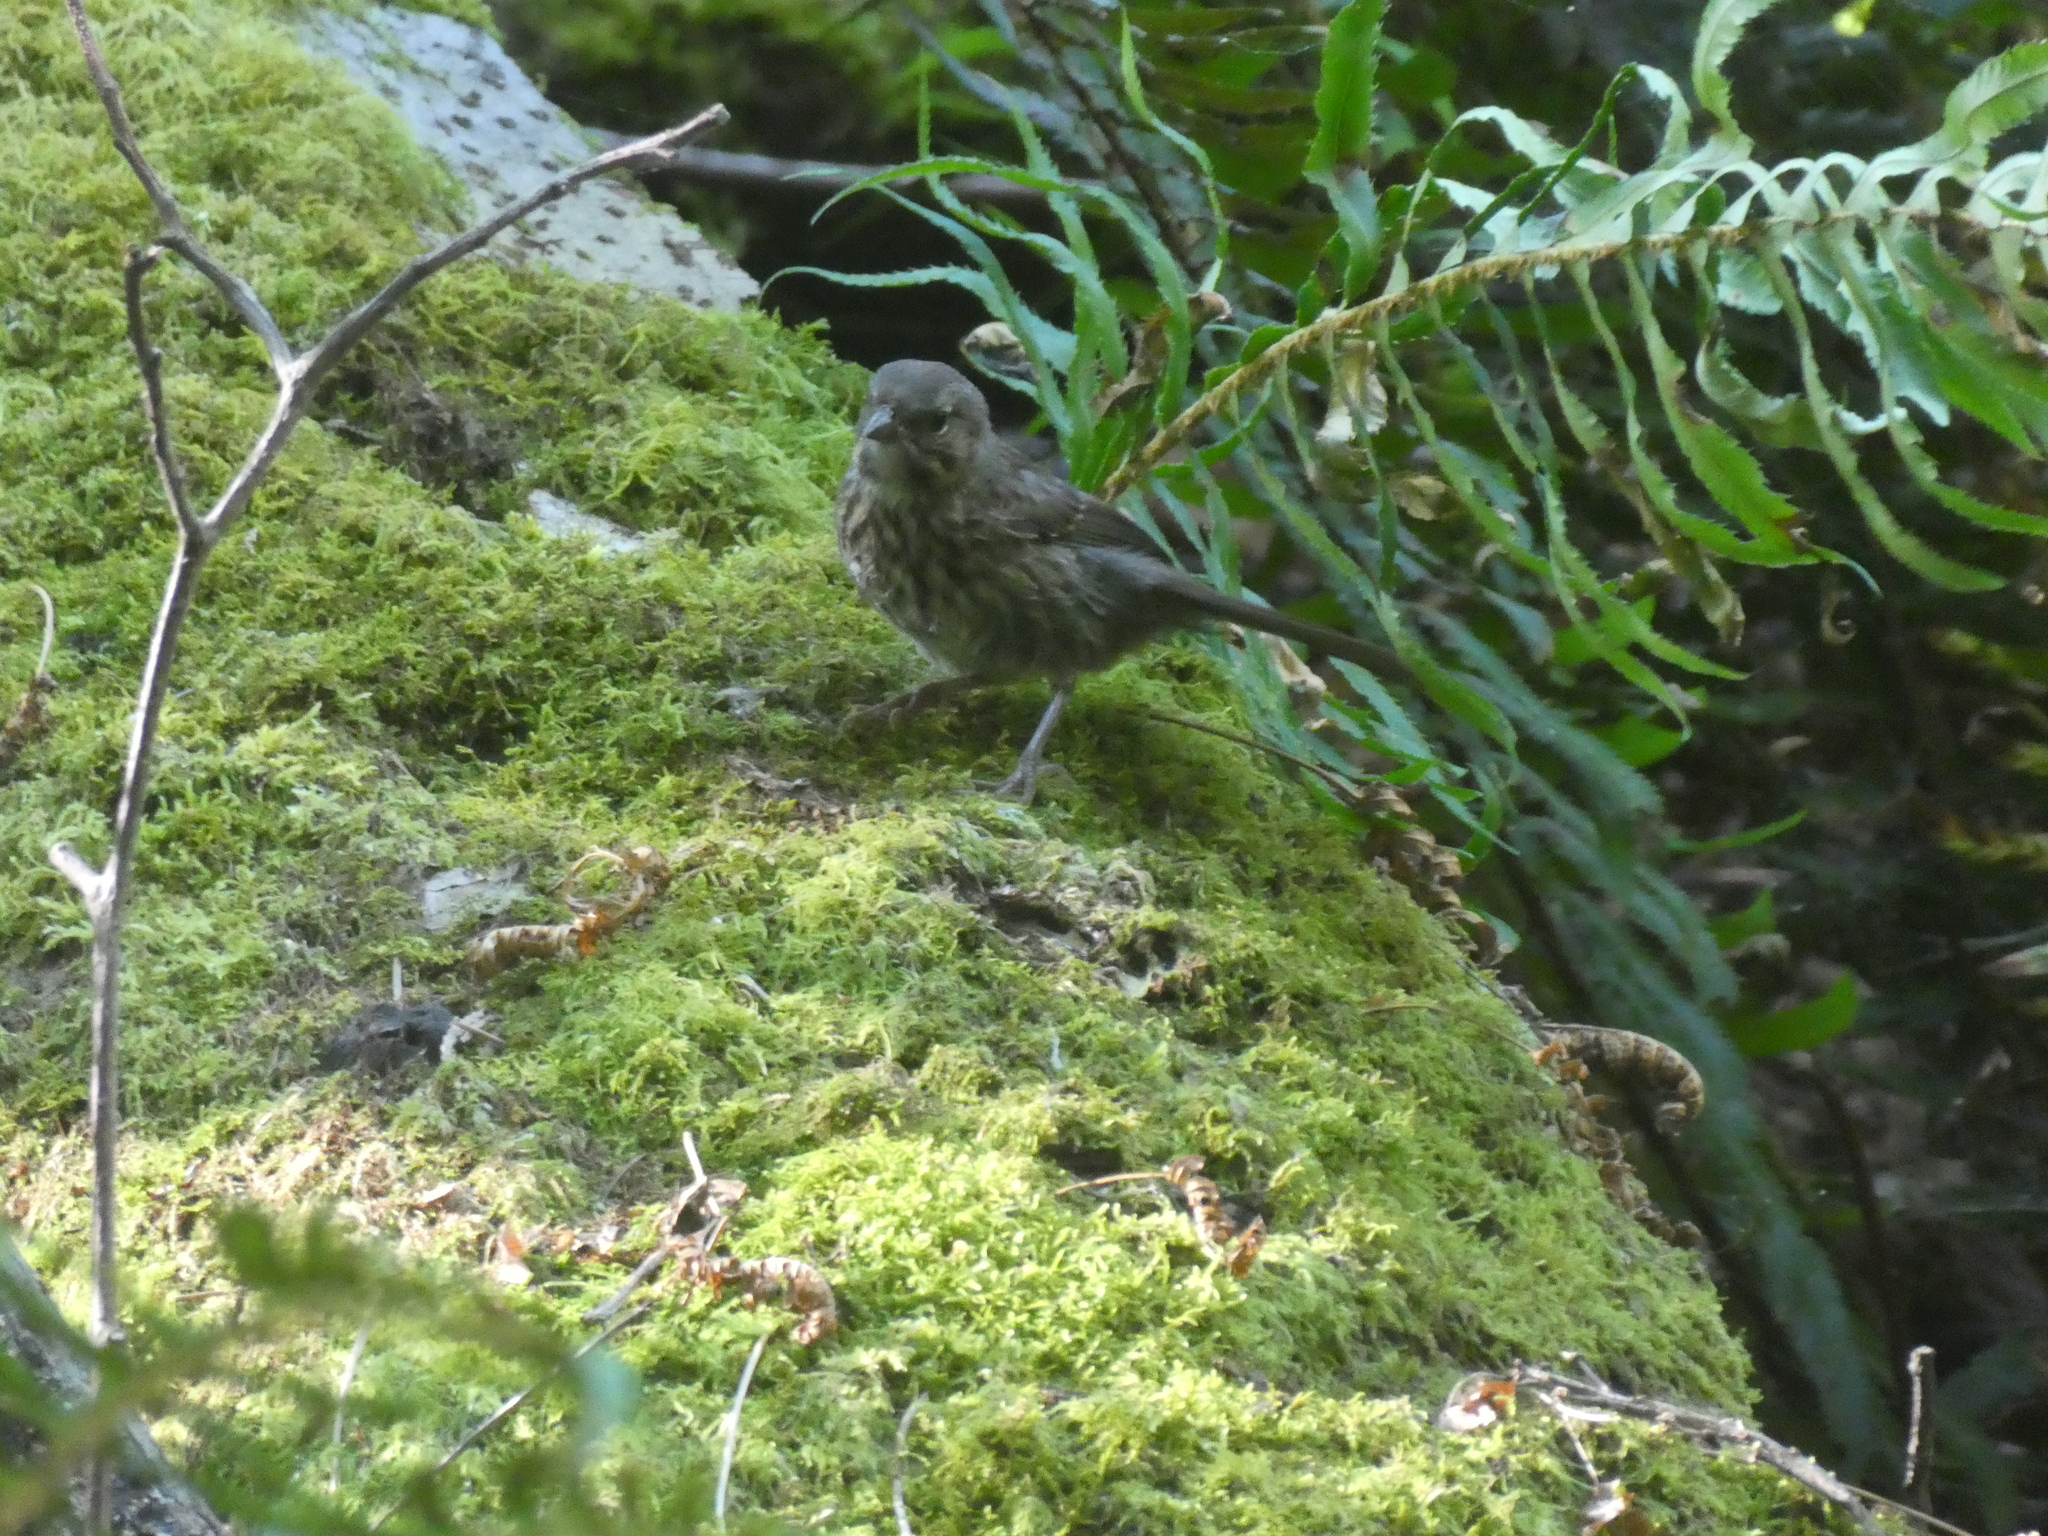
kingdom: Animalia
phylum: Chordata
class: Aves
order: Passeriformes
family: Passerellidae
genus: Melospiza
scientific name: Melospiza melodia
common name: Song sparrow
